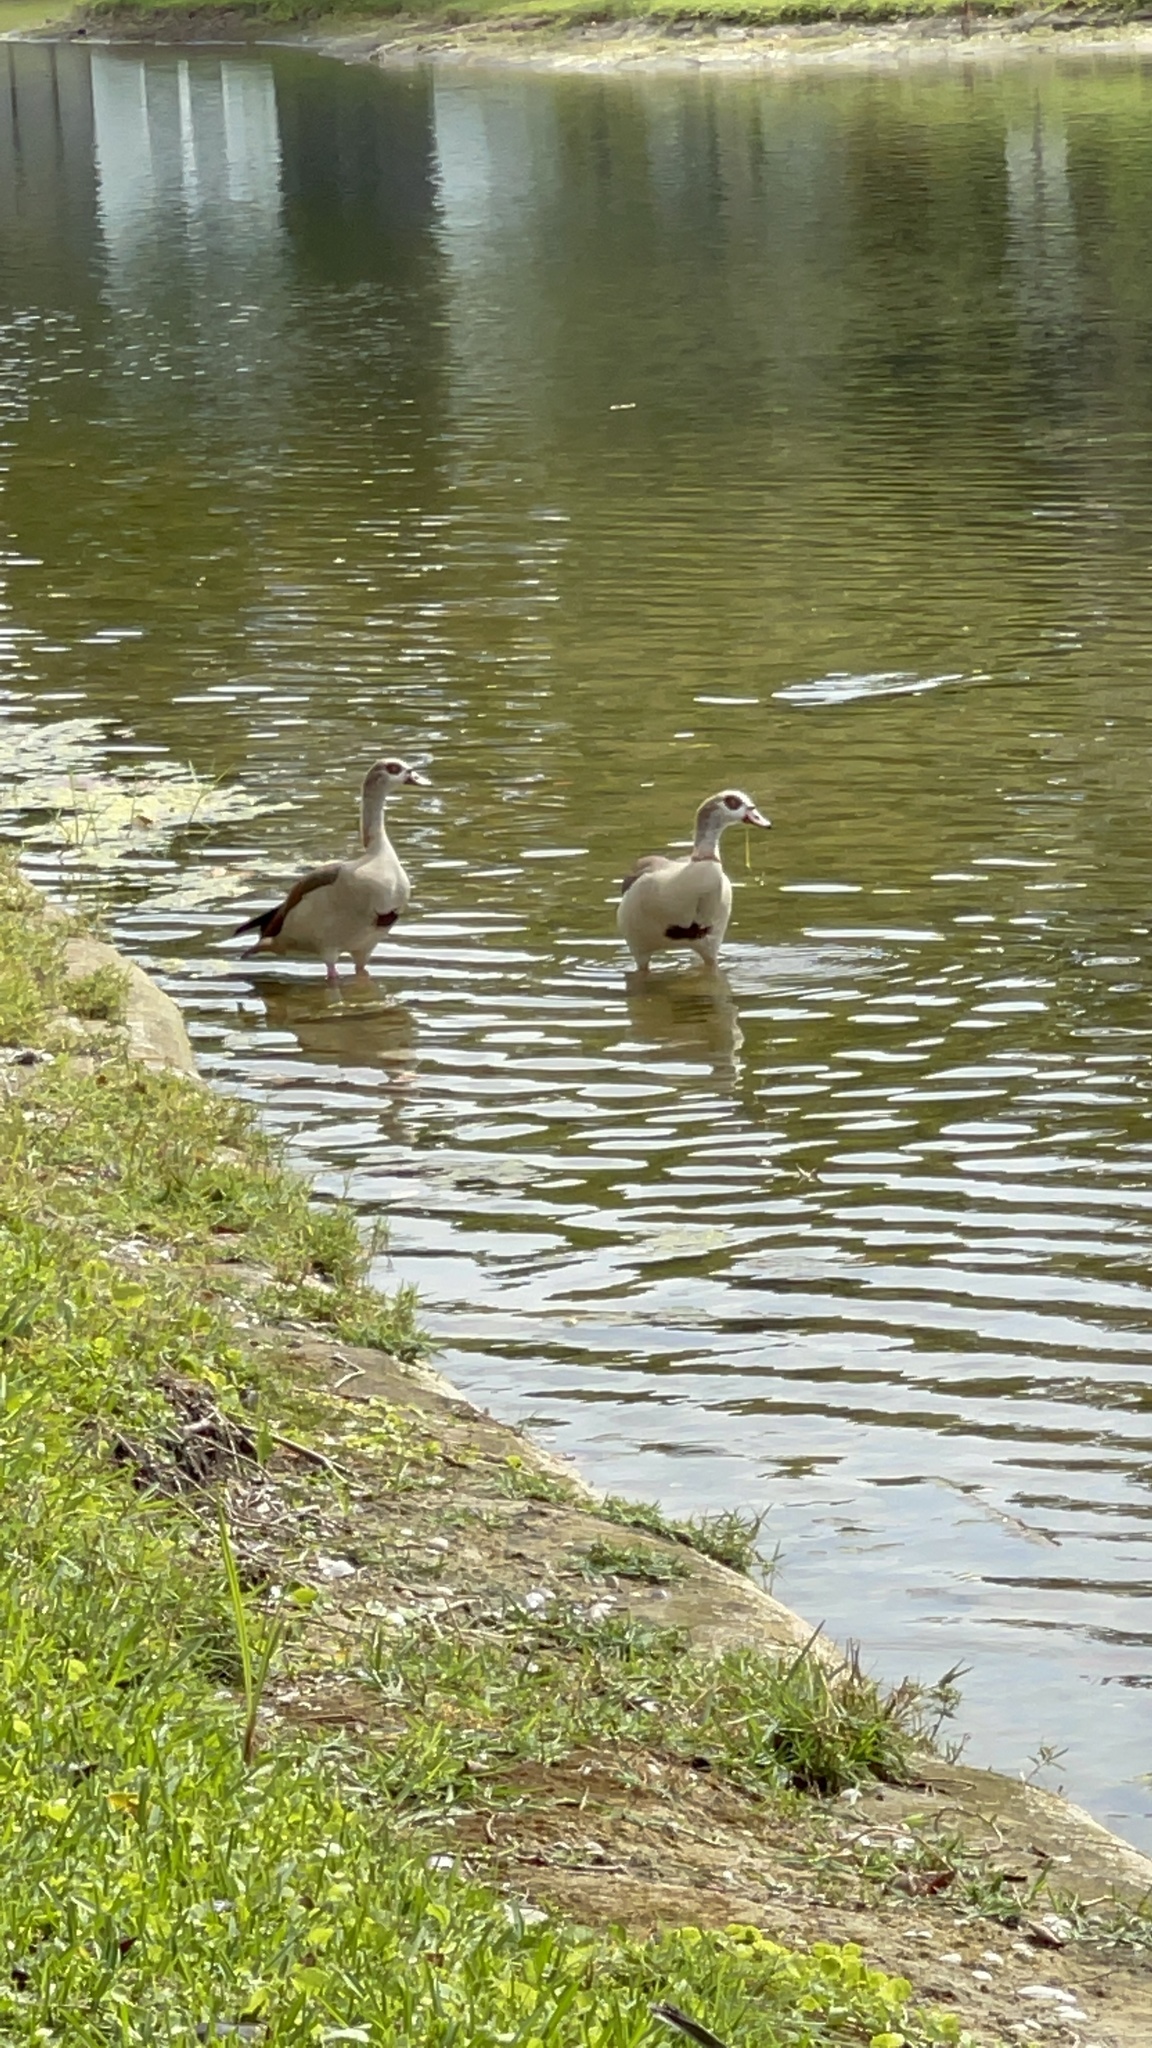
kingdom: Animalia
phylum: Chordata
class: Aves
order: Anseriformes
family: Anatidae
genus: Alopochen
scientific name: Alopochen aegyptiaca
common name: Egyptian goose
